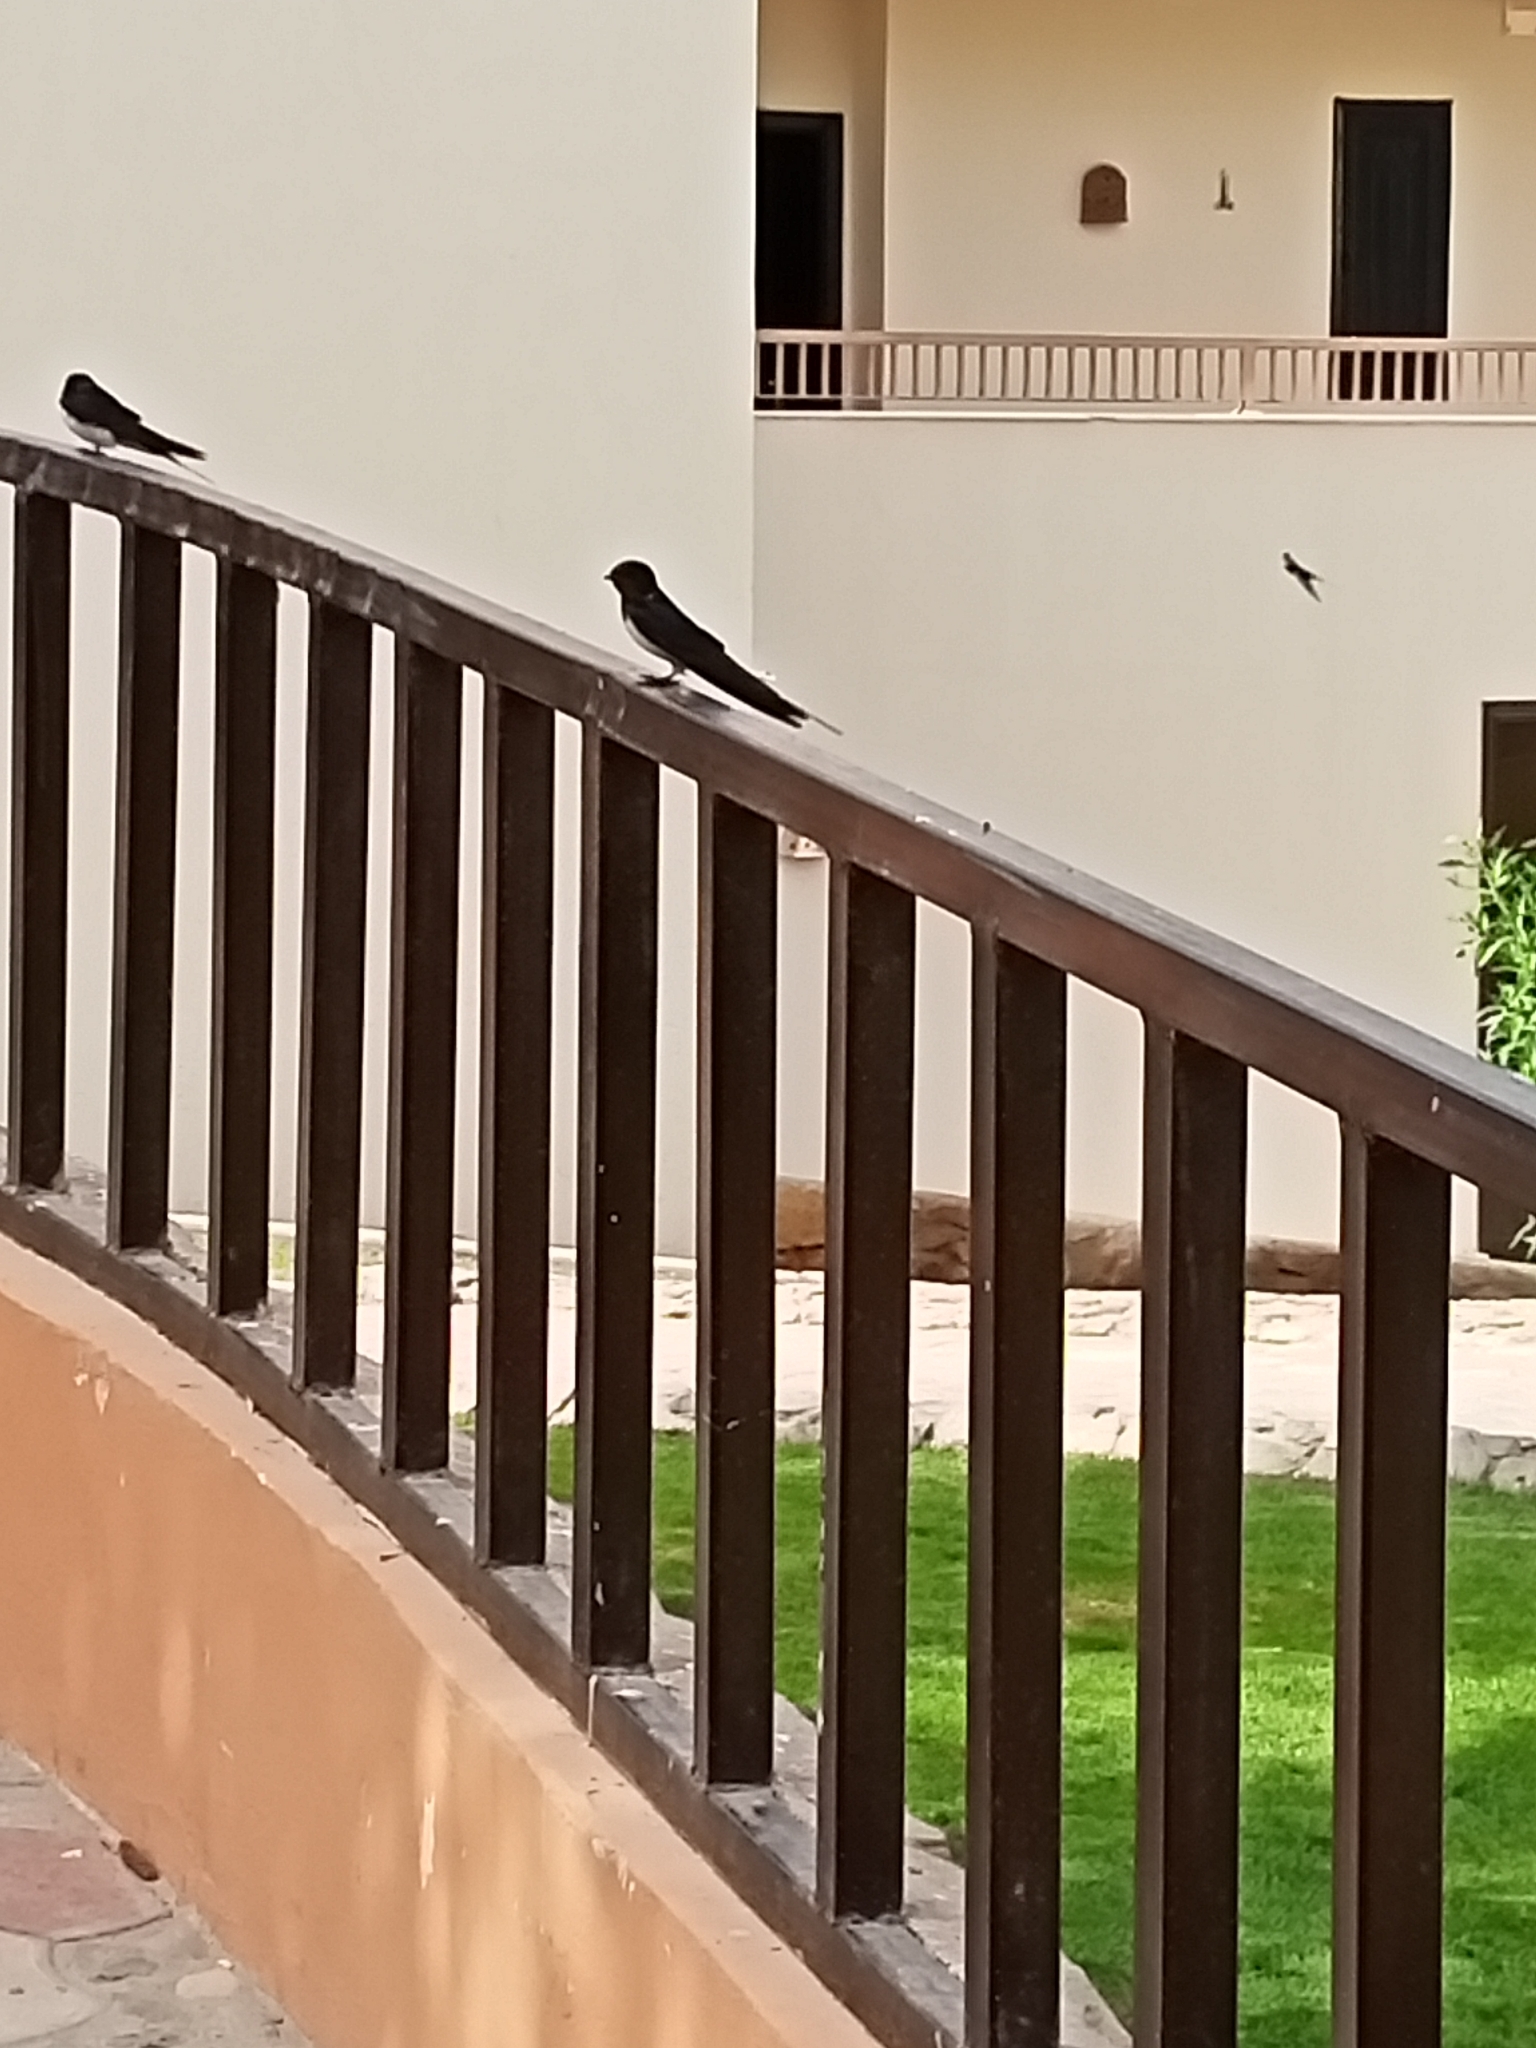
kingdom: Animalia
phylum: Chordata
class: Aves
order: Passeriformes
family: Hirundinidae
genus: Hirundo
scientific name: Hirundo rustica
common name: Barn swallow
